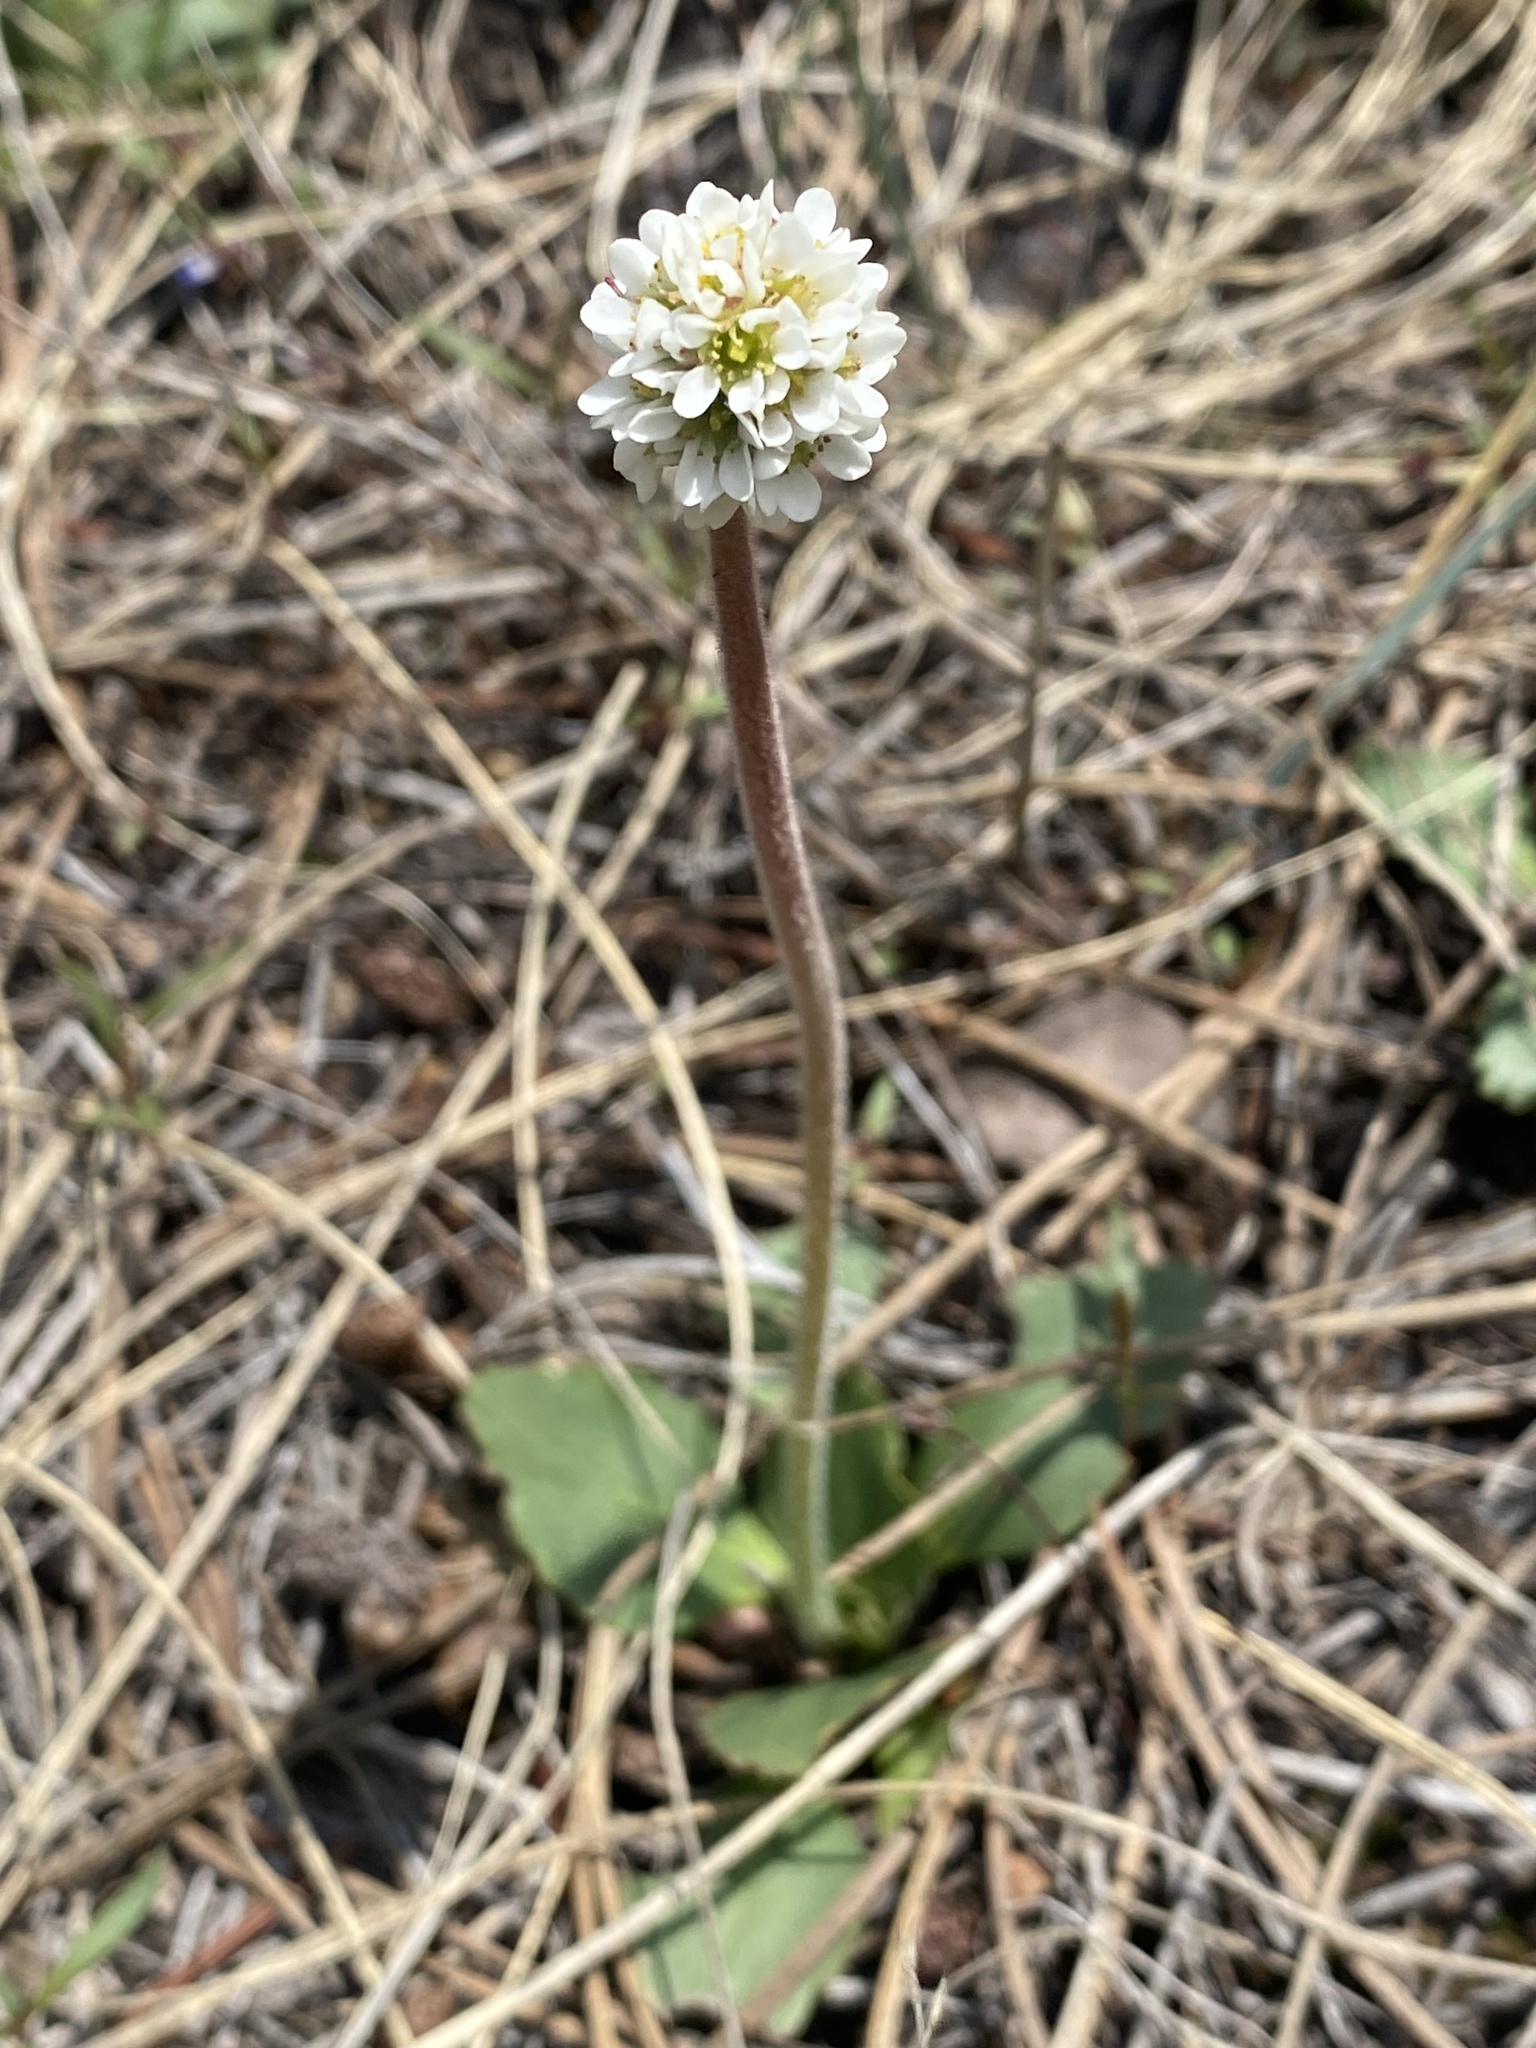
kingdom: Plantae
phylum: Tracheophyta
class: Magnoliopsida
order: Saxifragales
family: Saxifragaceae
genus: Micranthes
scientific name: Micranthes rhomboidea
